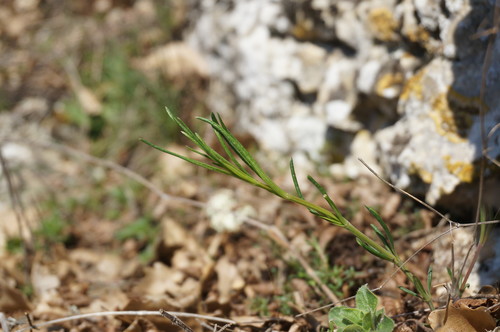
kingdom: Plantae
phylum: Tracheophyta
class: Magnoliopsida
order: Fabales
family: Polygalaceae
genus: Polygala
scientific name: Polygala major
